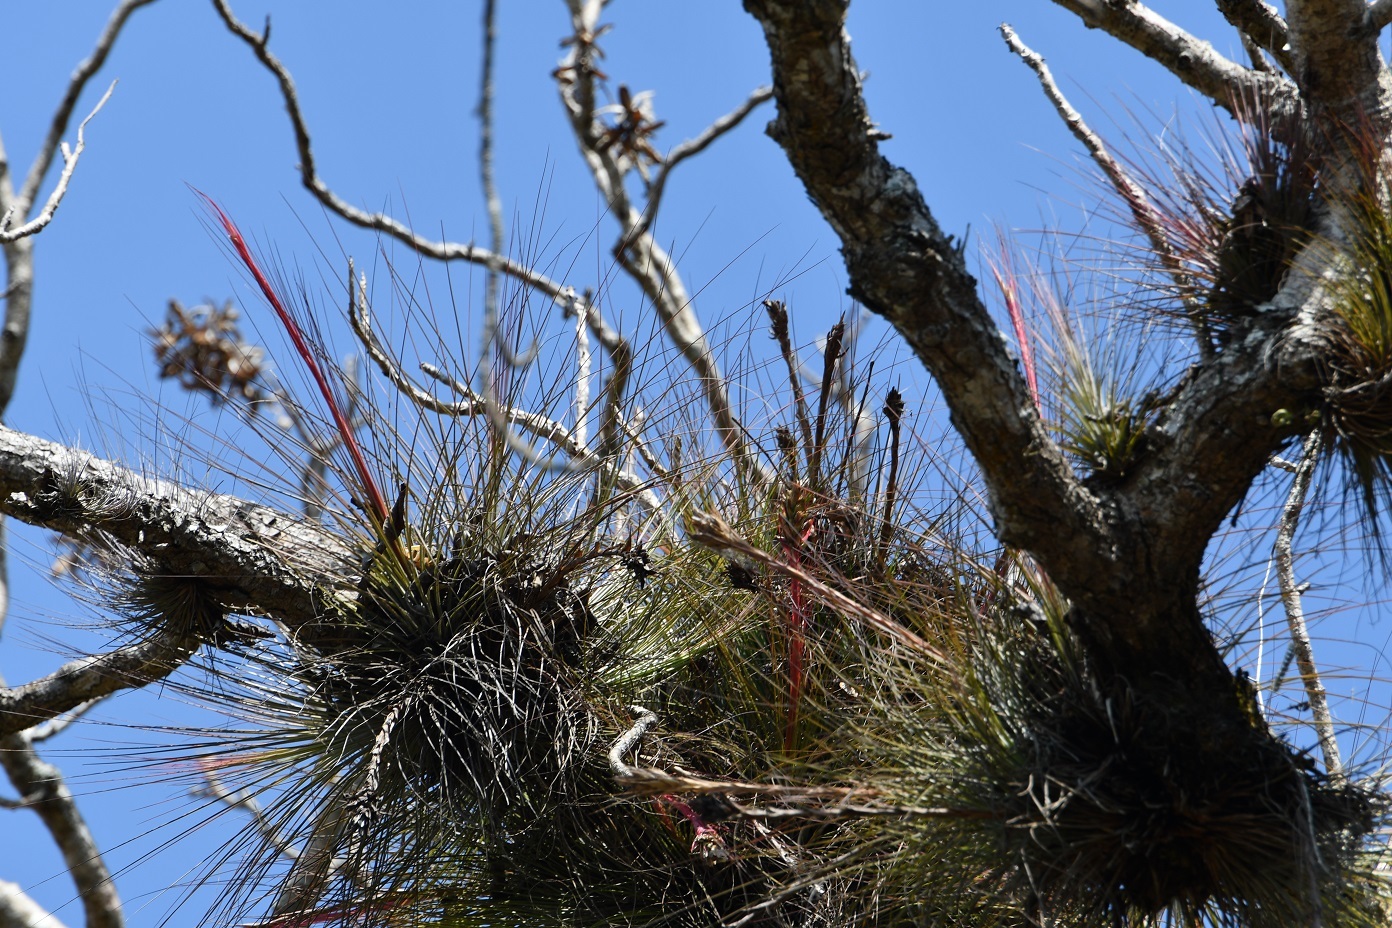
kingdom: Plantae
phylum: Tracheophyta
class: Liliopsida
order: Poales
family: Bromeliaceae
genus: Tillandsia
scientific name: Tillandsia juncea
